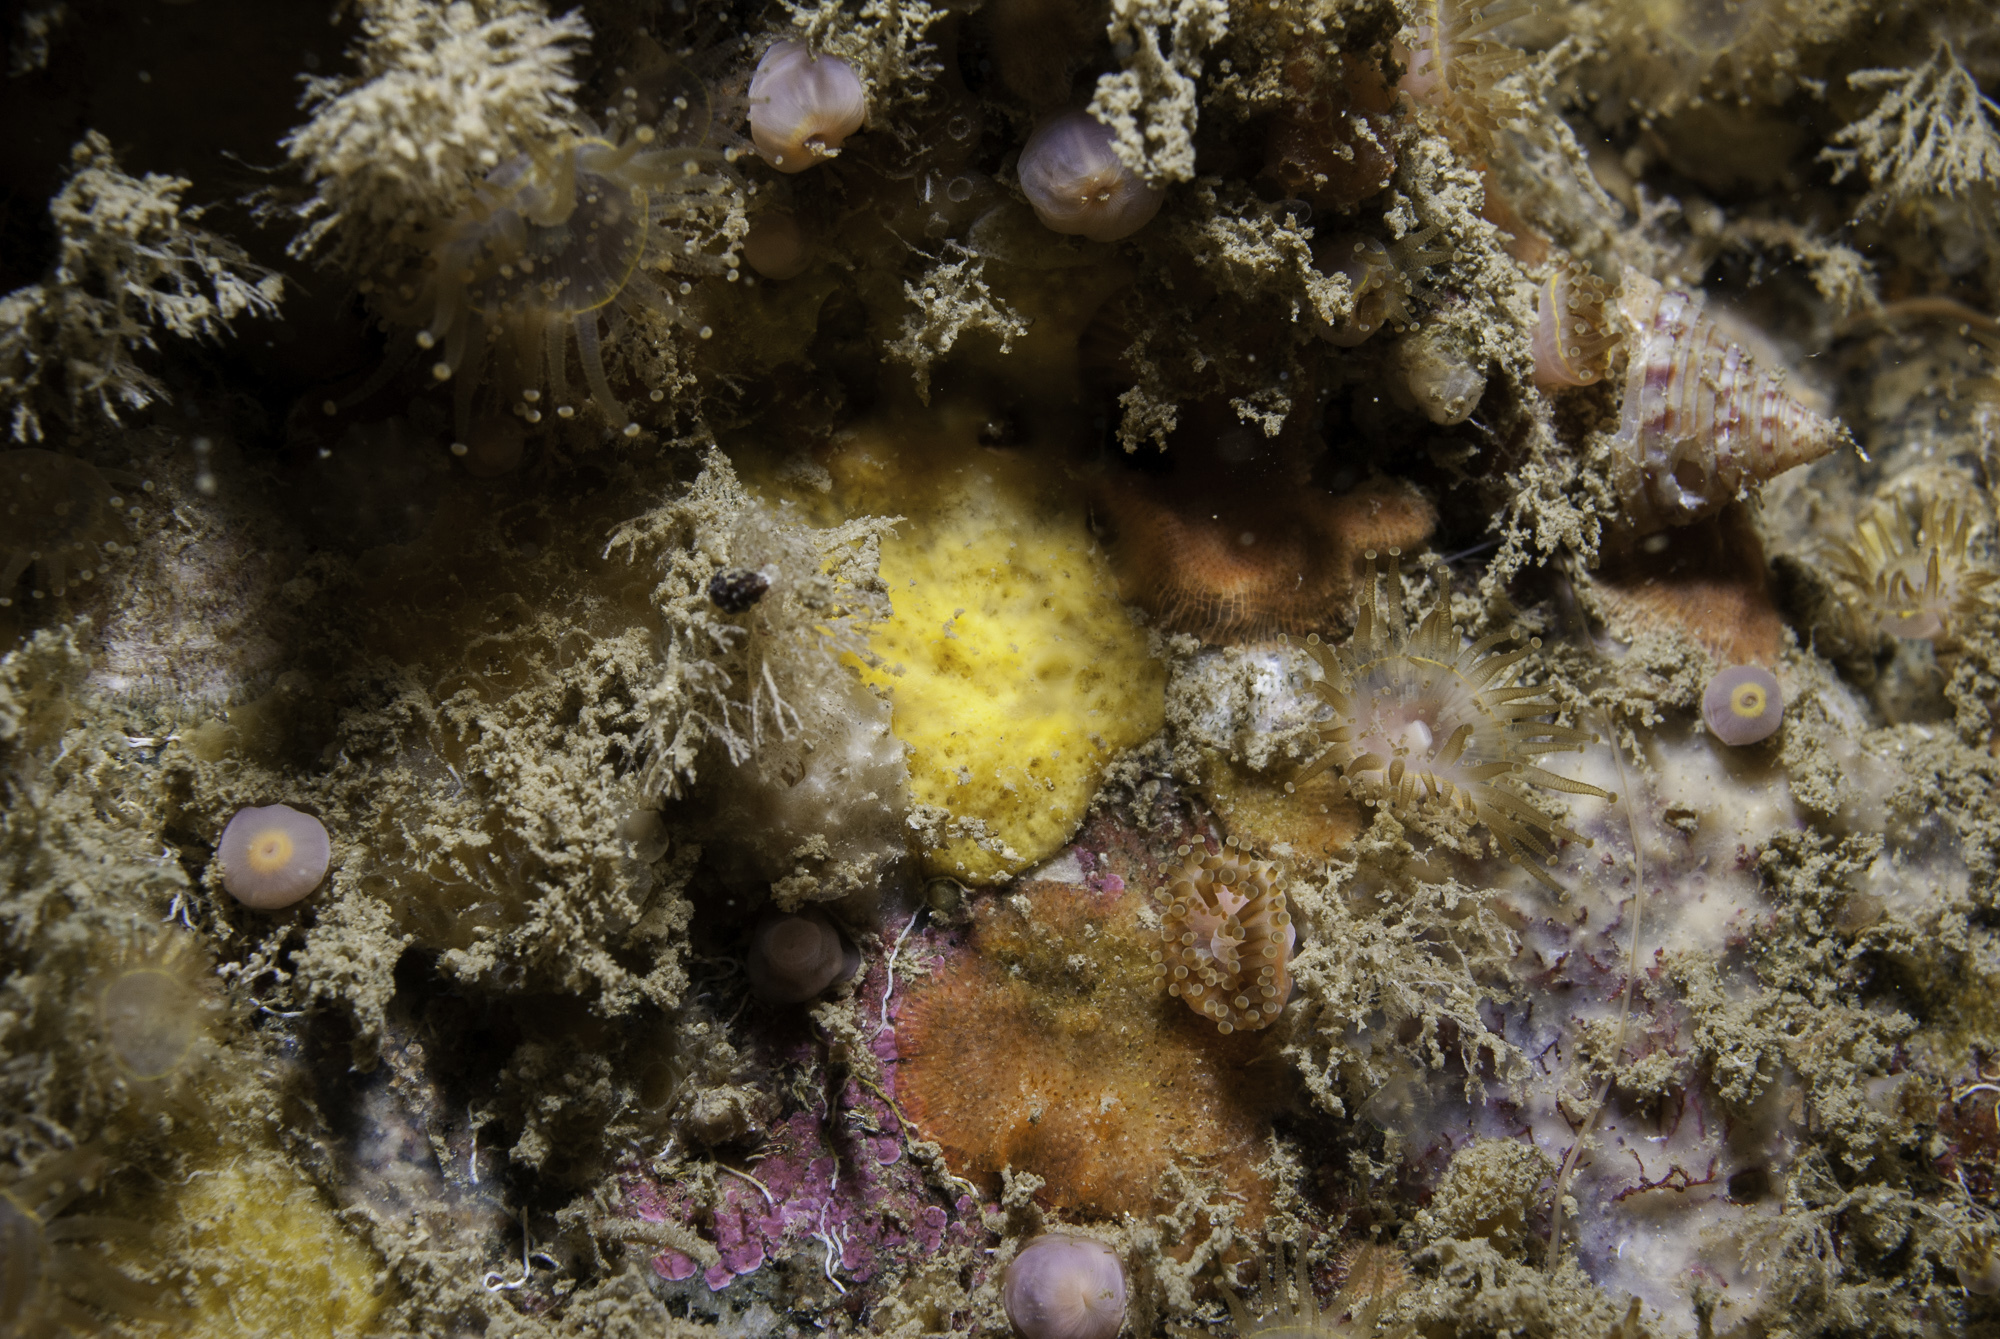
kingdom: Animalia
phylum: Porifera
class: Demospongiae
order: Axinellida
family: Stelligeridae
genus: Paratimea
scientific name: Paratimea dentata
